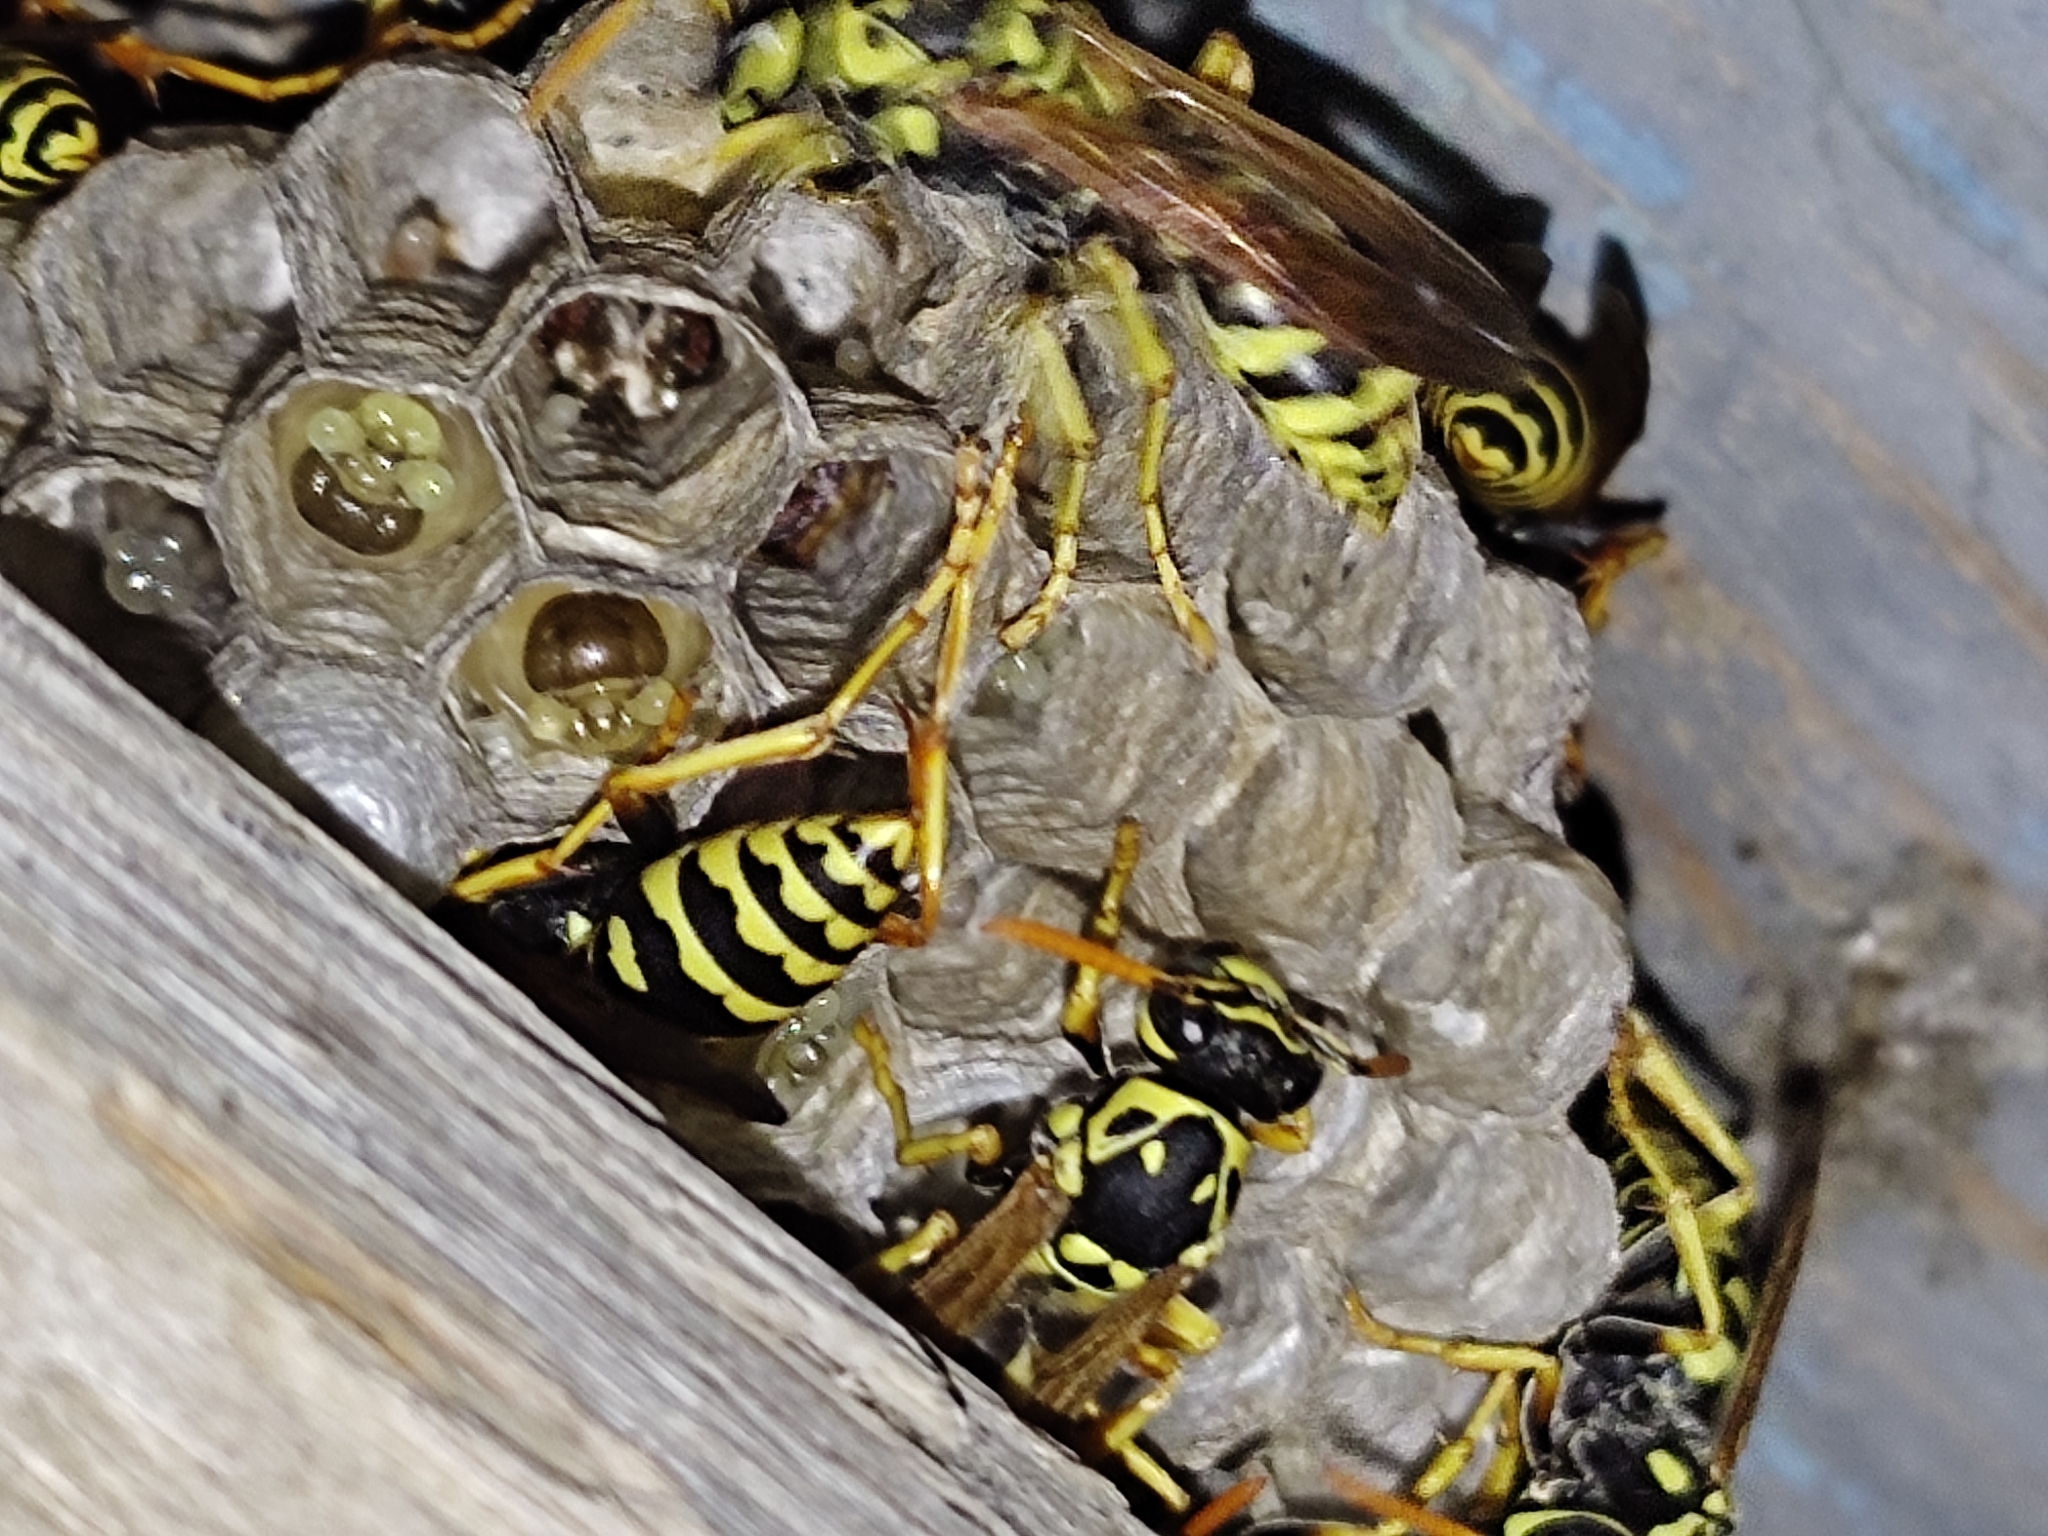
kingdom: Animalia
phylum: Arthropoda
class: Insecta
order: Hymenoptera
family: Eumenidae
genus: Polistes
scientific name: Polistes dominula
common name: Paper wasp
